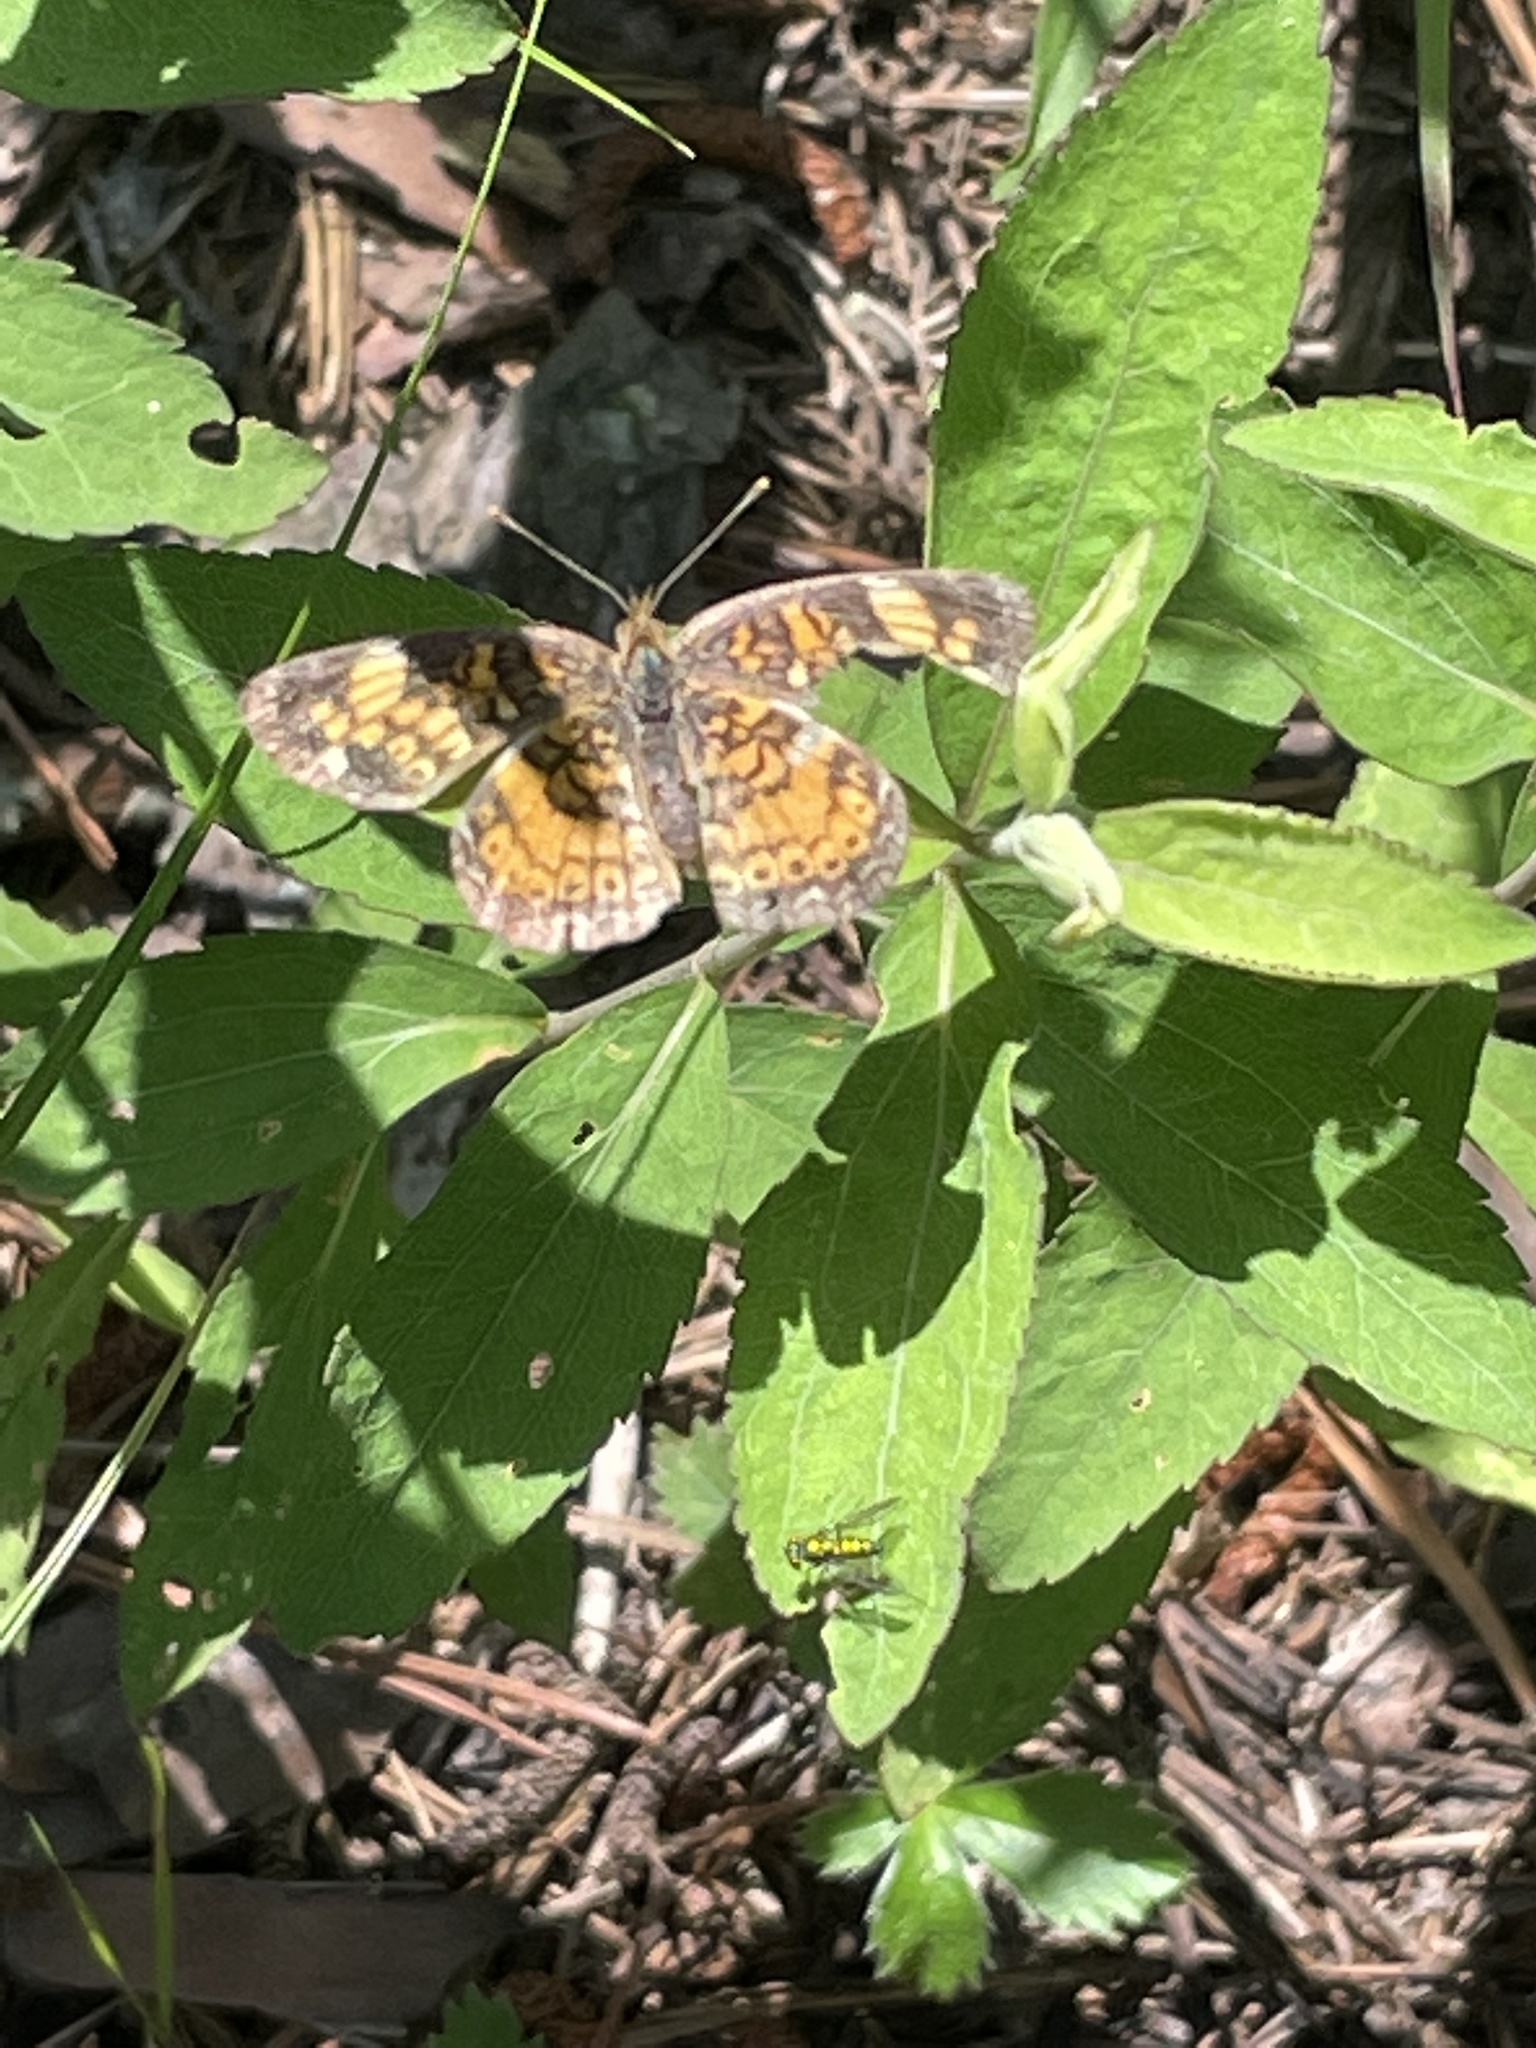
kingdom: Animalia
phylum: Arthropoda
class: Insecta
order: Lepidoptera
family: Nymphalidae
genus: Phyciodes
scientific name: Phyciodes tharos
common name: Pearl crescent
